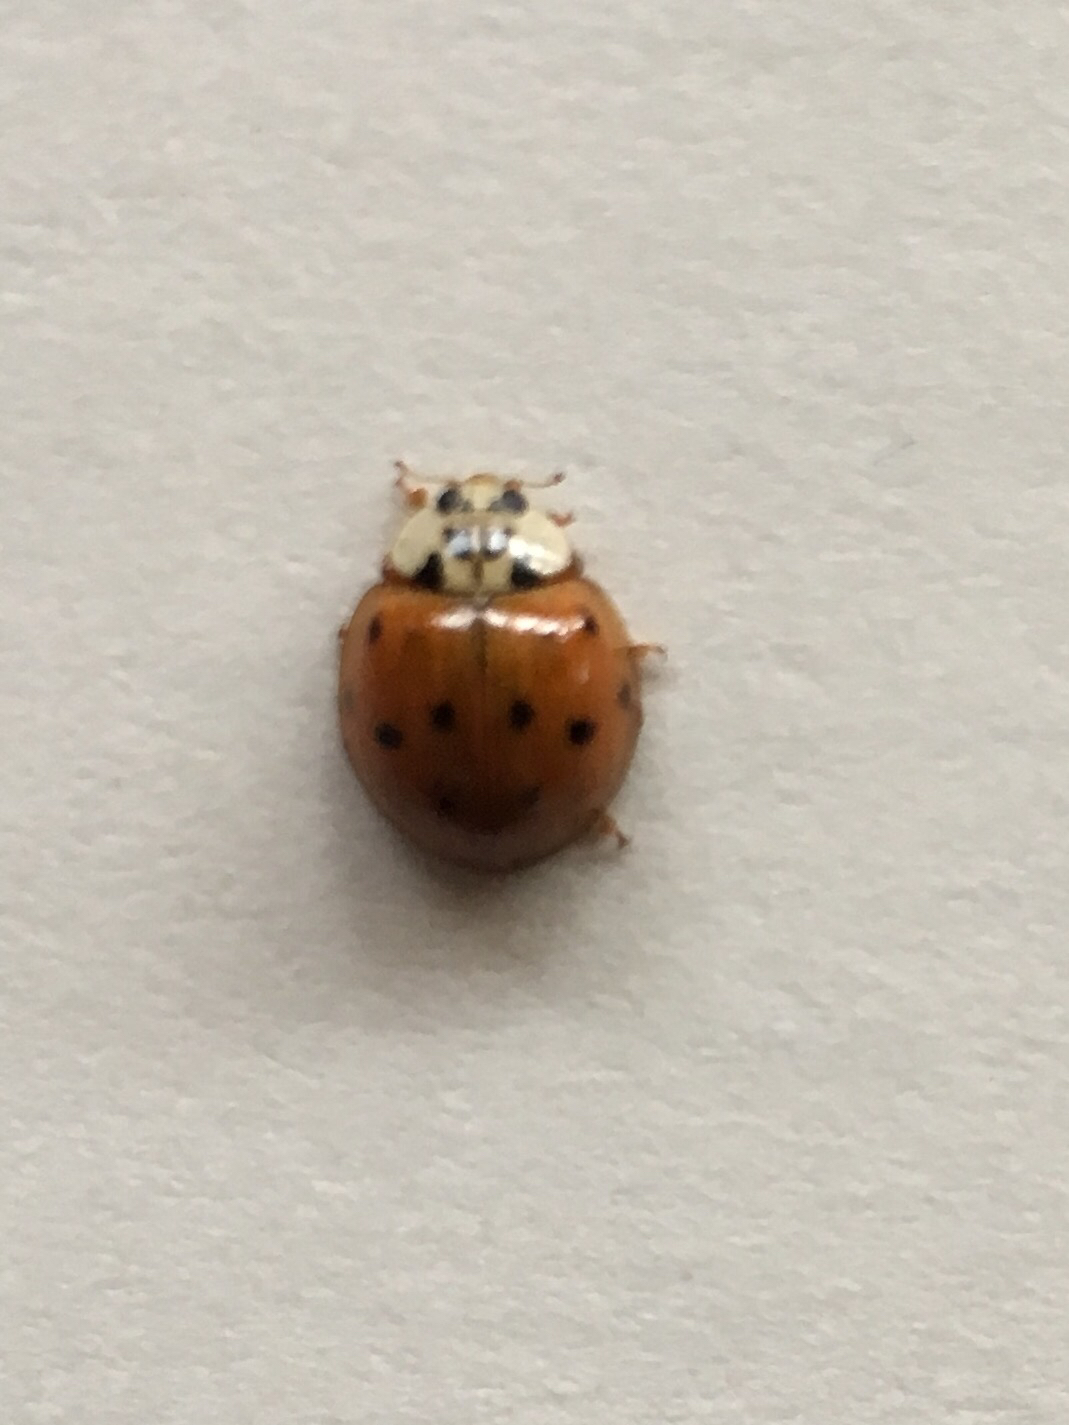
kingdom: Animalia
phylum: Arthropoda
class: Insecta
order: Coleoptera
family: Coccinellidae
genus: Harmonia
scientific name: Harmonia axyridis
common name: Harlequin ladybird
